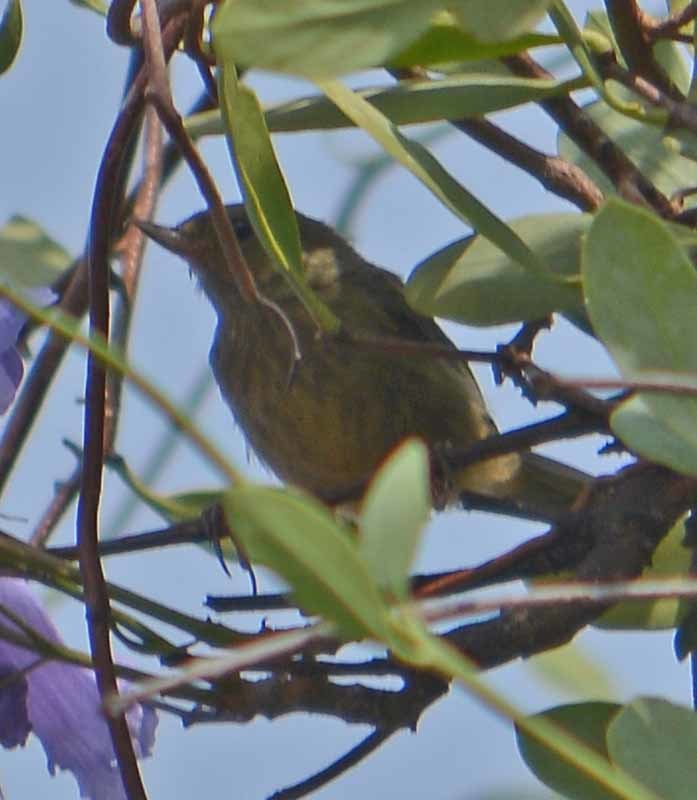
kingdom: Animalia
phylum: Chordata
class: Aves
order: Passeriformes
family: Thraupidae
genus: Diglossa
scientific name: Diglossa baritula
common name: Cinnamon-bellied flowerpiercer
